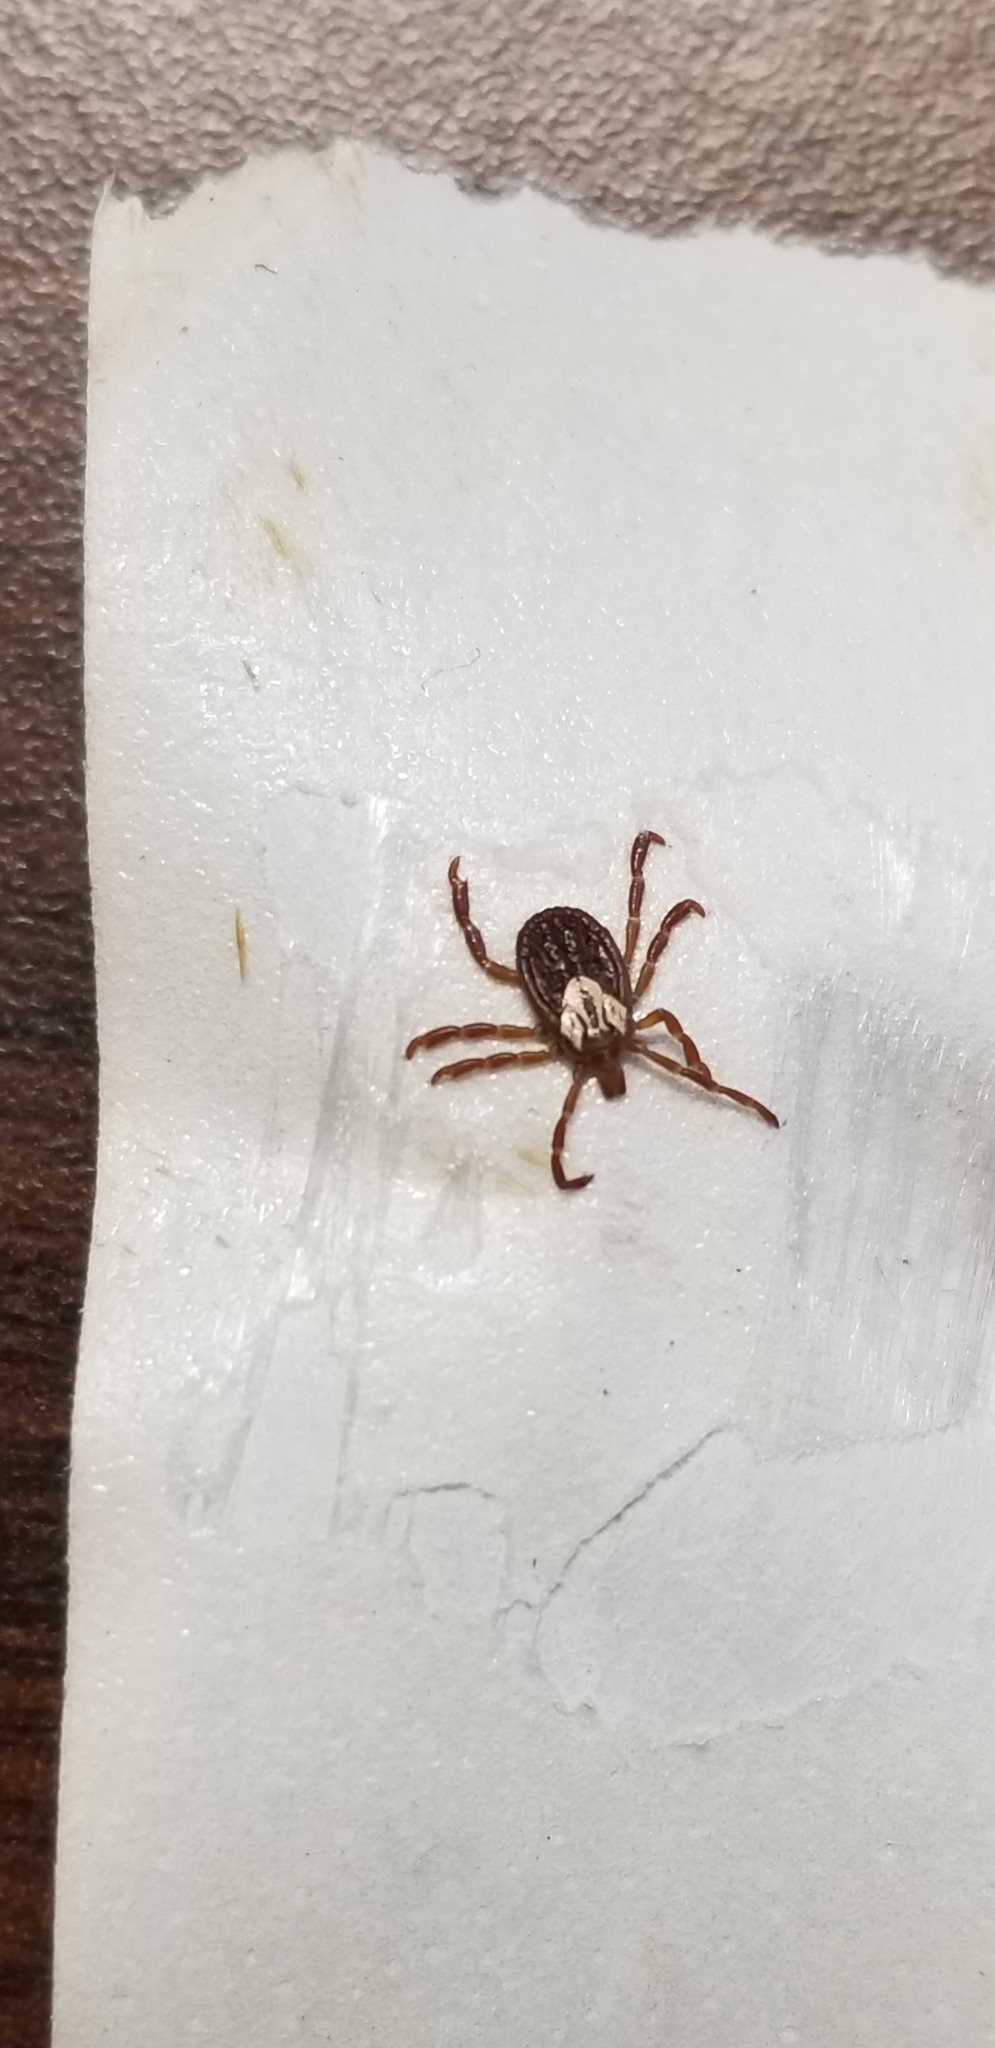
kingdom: Animalia
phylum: Arthropoda
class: Arachnida
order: Ixodida
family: Ixodidae
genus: Amblyomma
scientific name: Amblyomma maculatum
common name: Gulf coast tick
